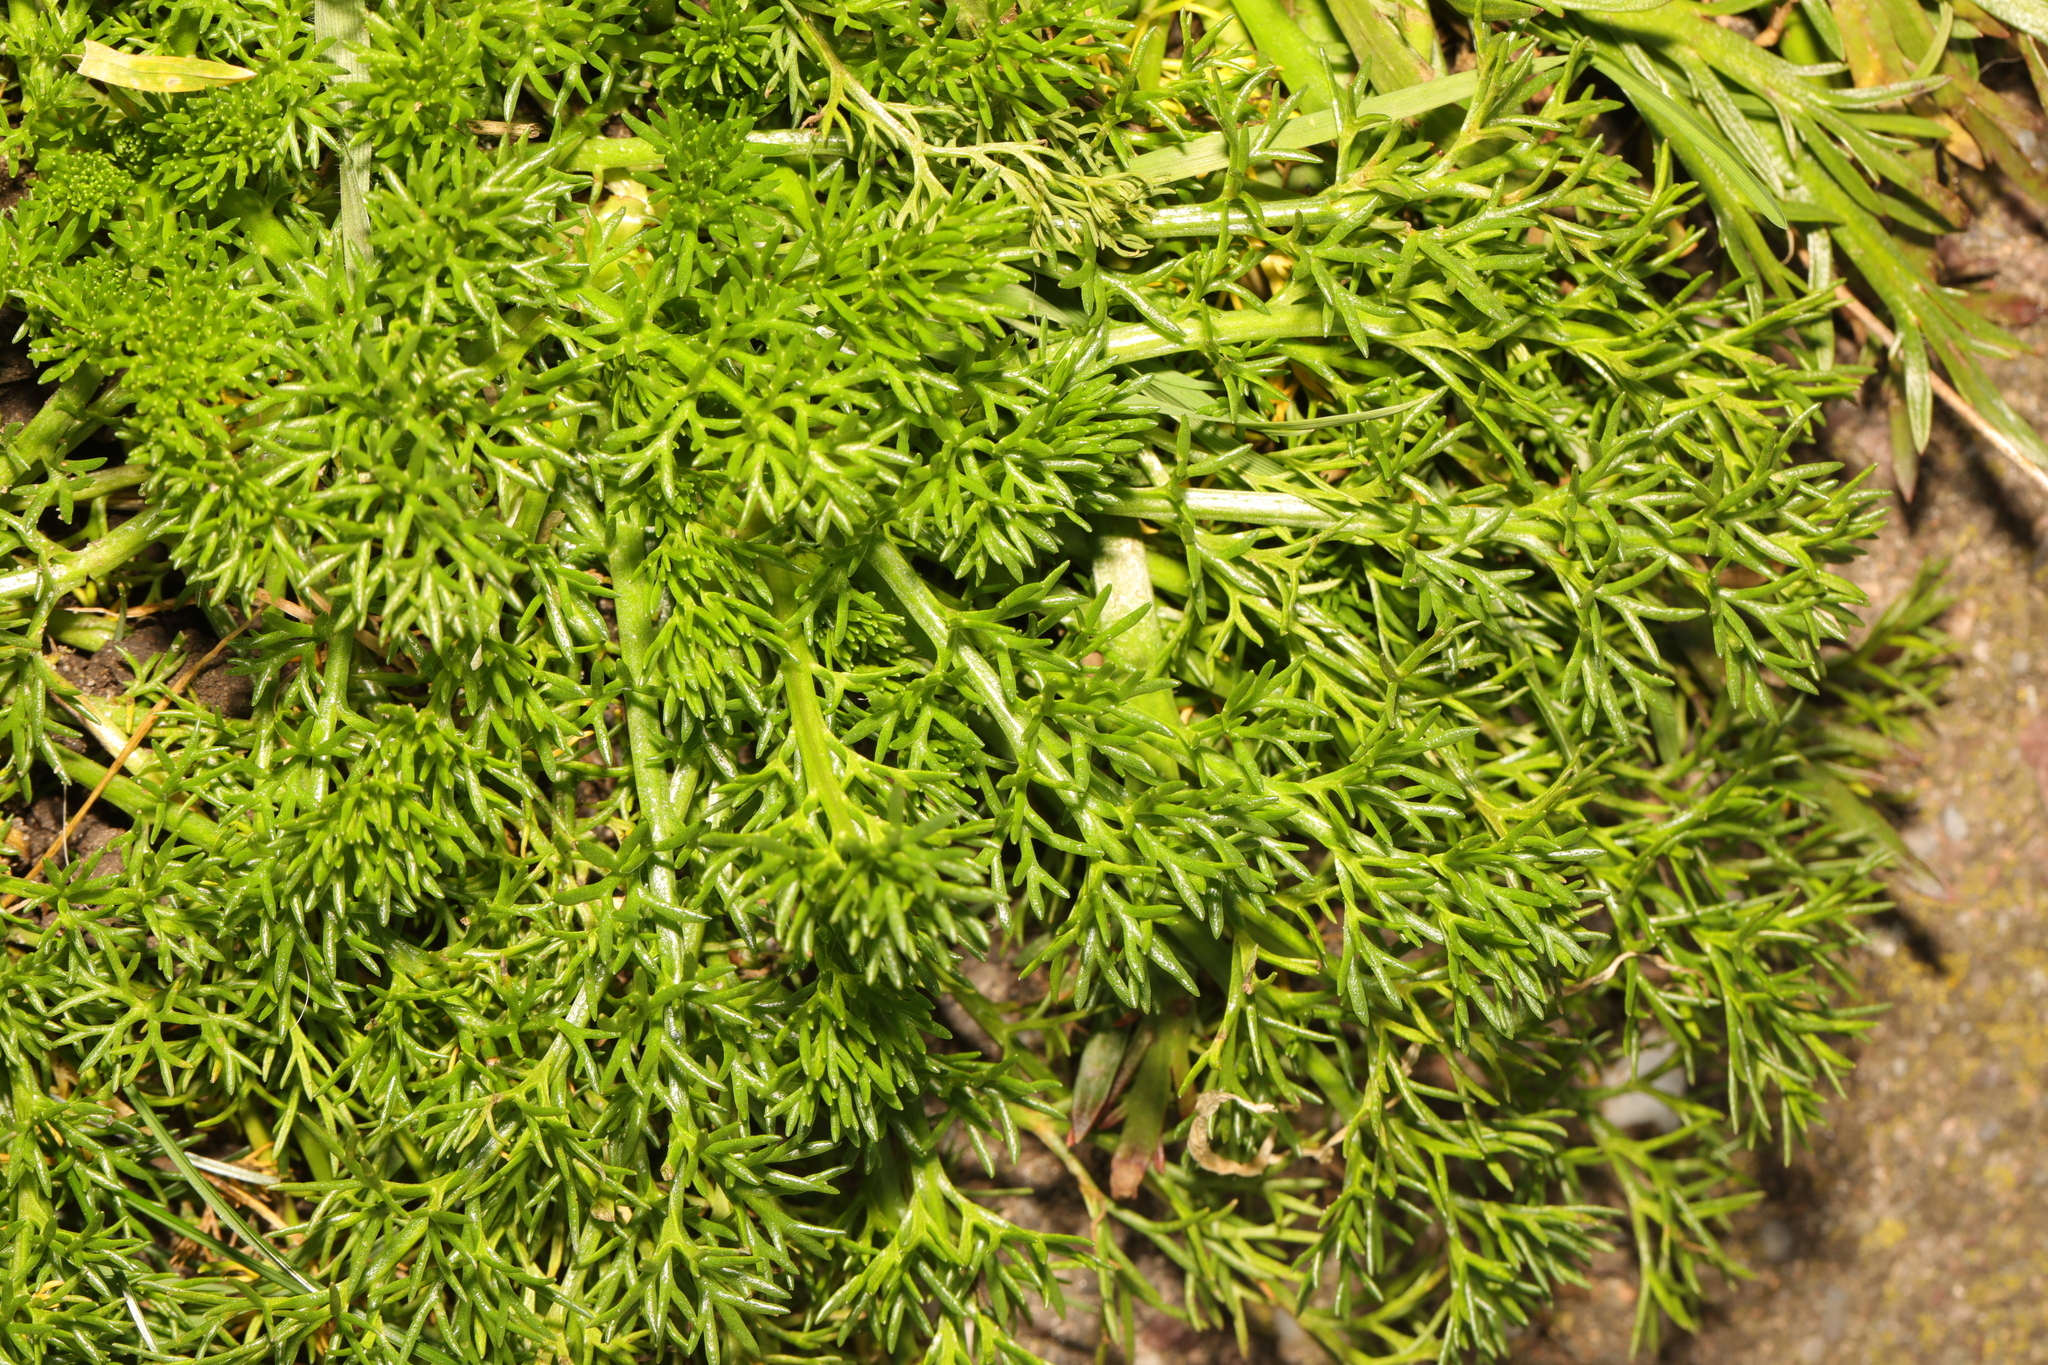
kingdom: Plantae
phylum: Tracheophyta
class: Magnoliopsida
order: Asterales
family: Asteraceae
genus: Tripleurospermum
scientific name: Tripleurospermum maritimum
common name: Sea mayweed
